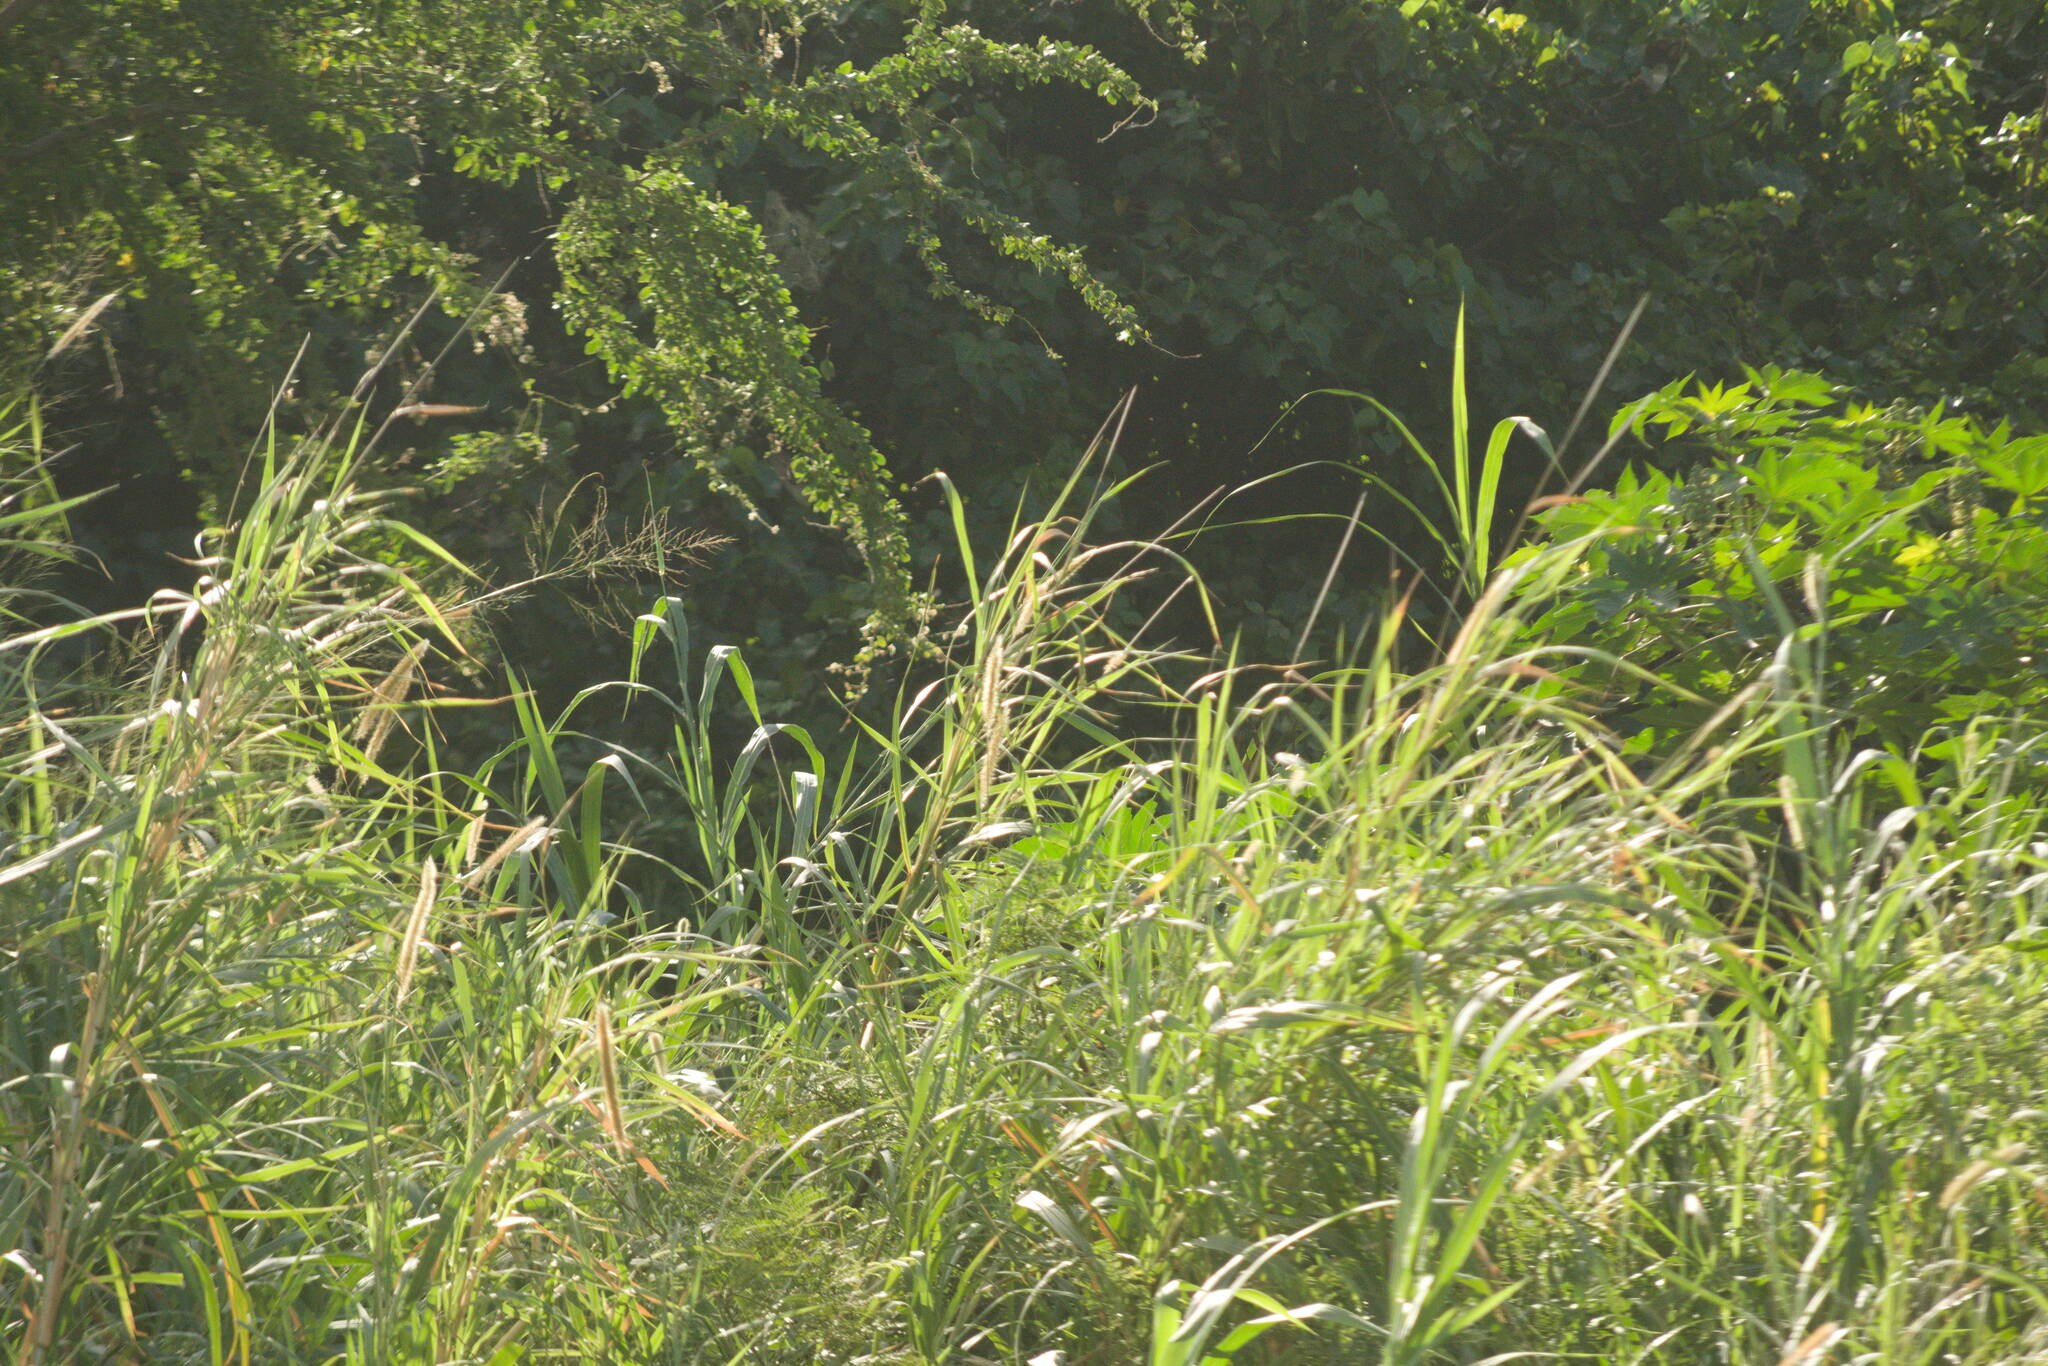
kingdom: Plantae
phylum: Tracheophyta
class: Liliopsida
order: Poales
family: Poaceae
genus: Megathyrsus
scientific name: Megathyrsus maximus
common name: Guineagrass
